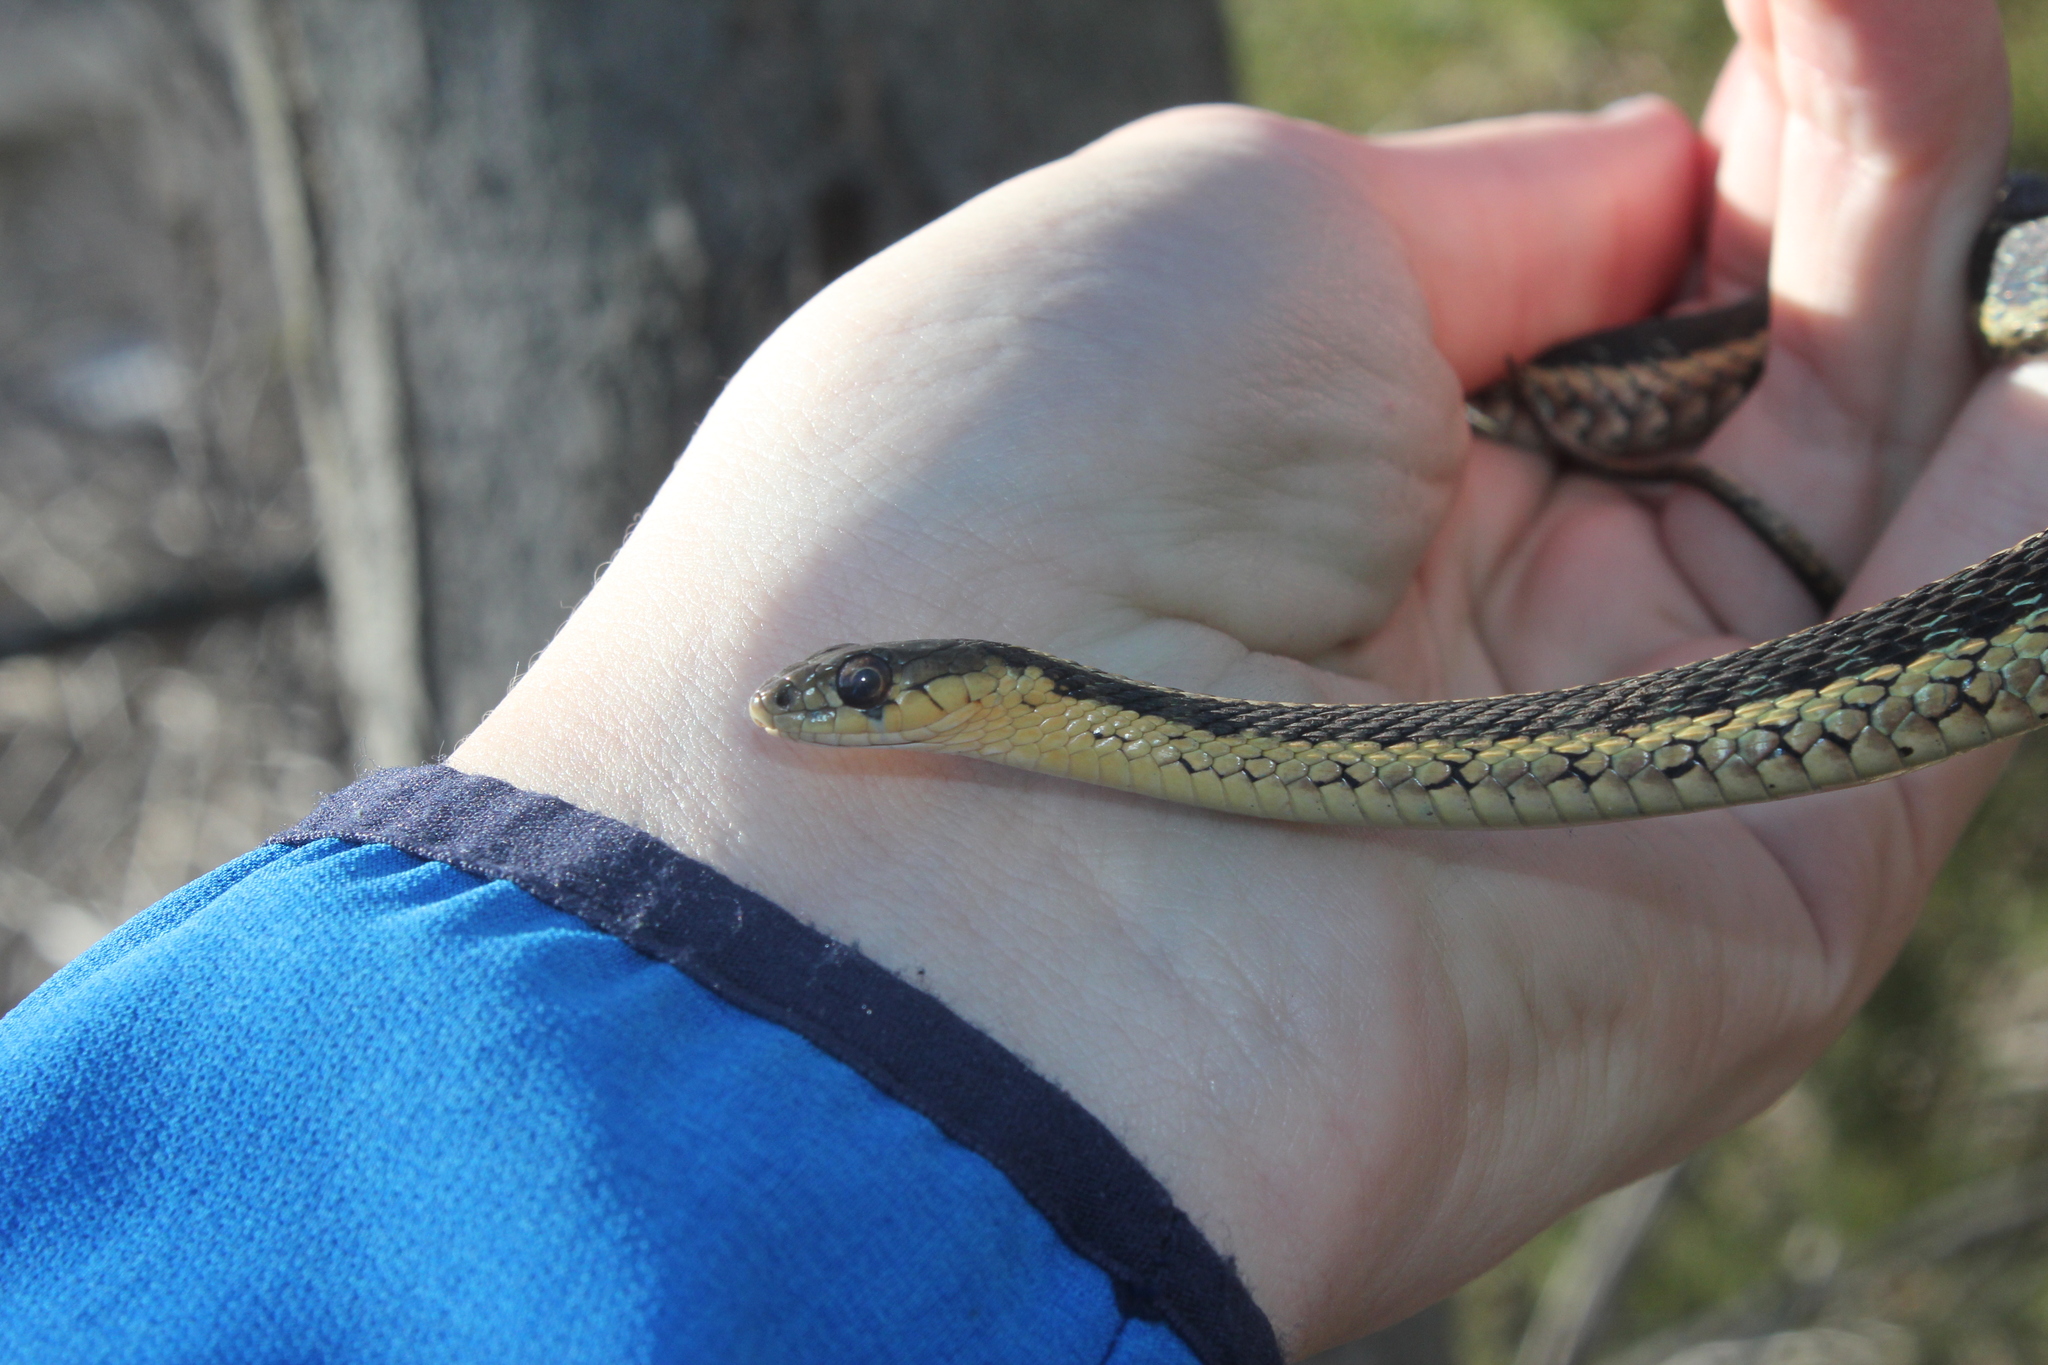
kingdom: Animalia
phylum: Chordata
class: Squamata
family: Colubridae
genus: Thamnophis
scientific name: Thamnophis sirtalis
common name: Common garter snake
